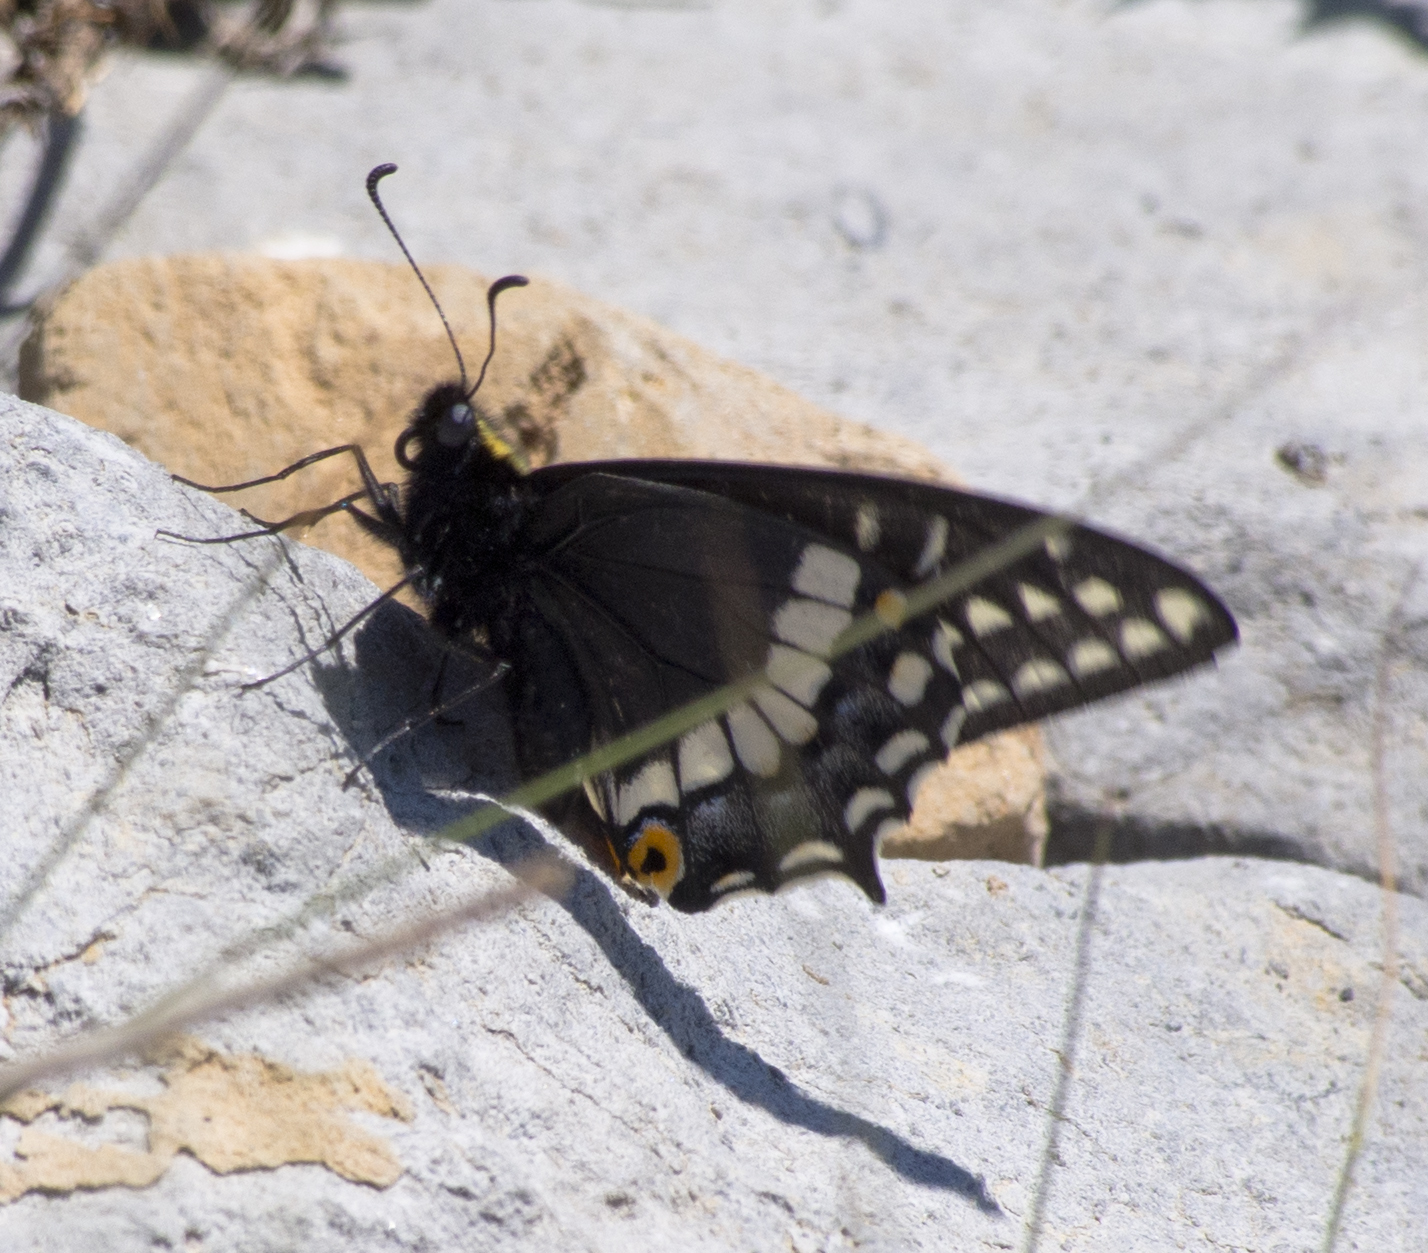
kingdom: Animalia
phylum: Arthropoda
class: Insecta
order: Lepidoptera
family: Papilionidae
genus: Papilio
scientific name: Papilio indra
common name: Cliff swallowtail
